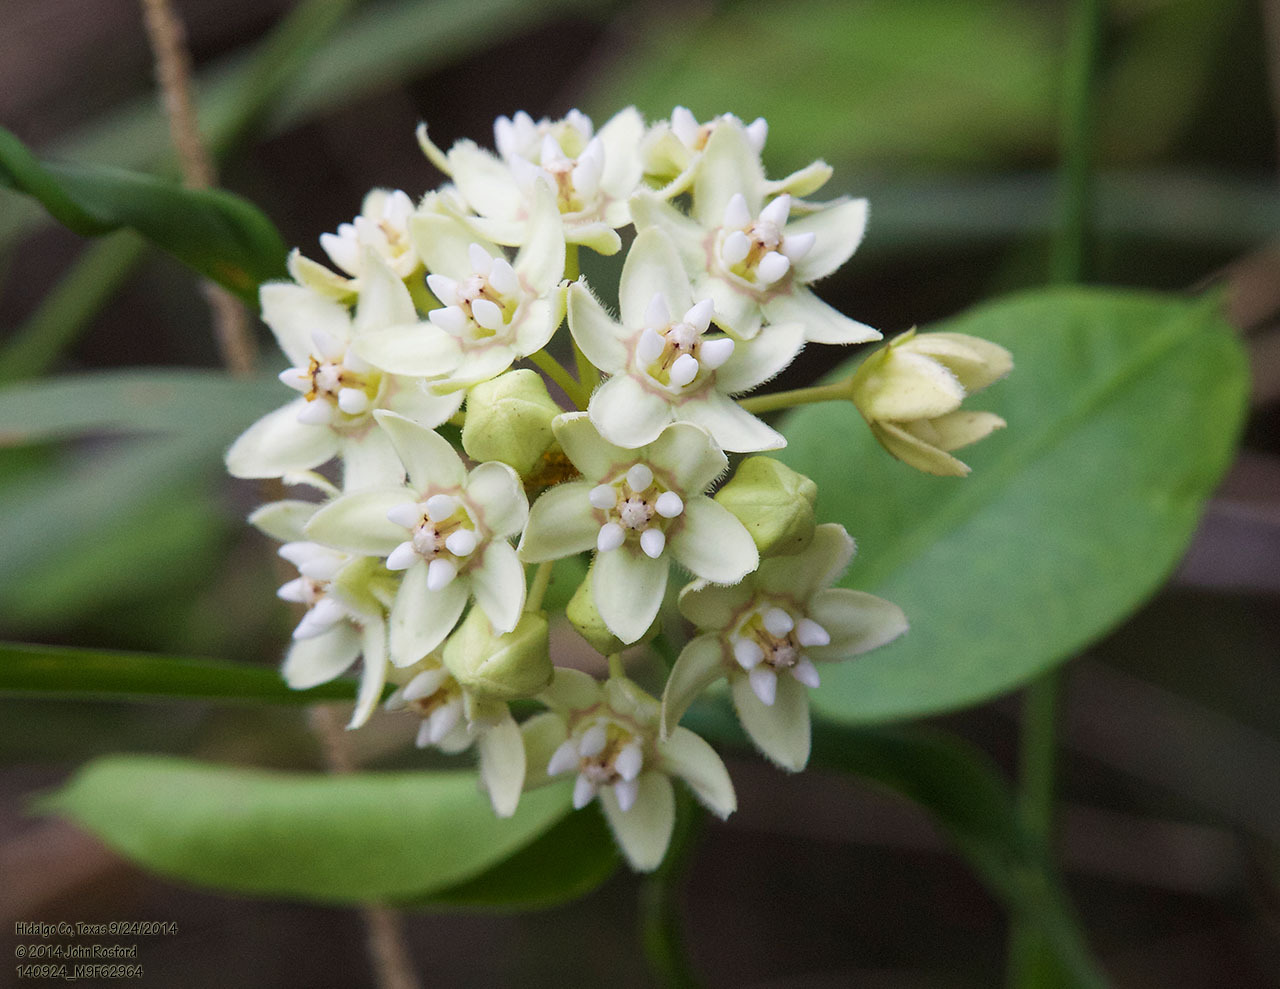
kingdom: Plantae
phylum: Tracheophyta
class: Magnoliopsida
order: Gentianales
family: Apocynaceae
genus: Funastrum
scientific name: Funastrum clausum
